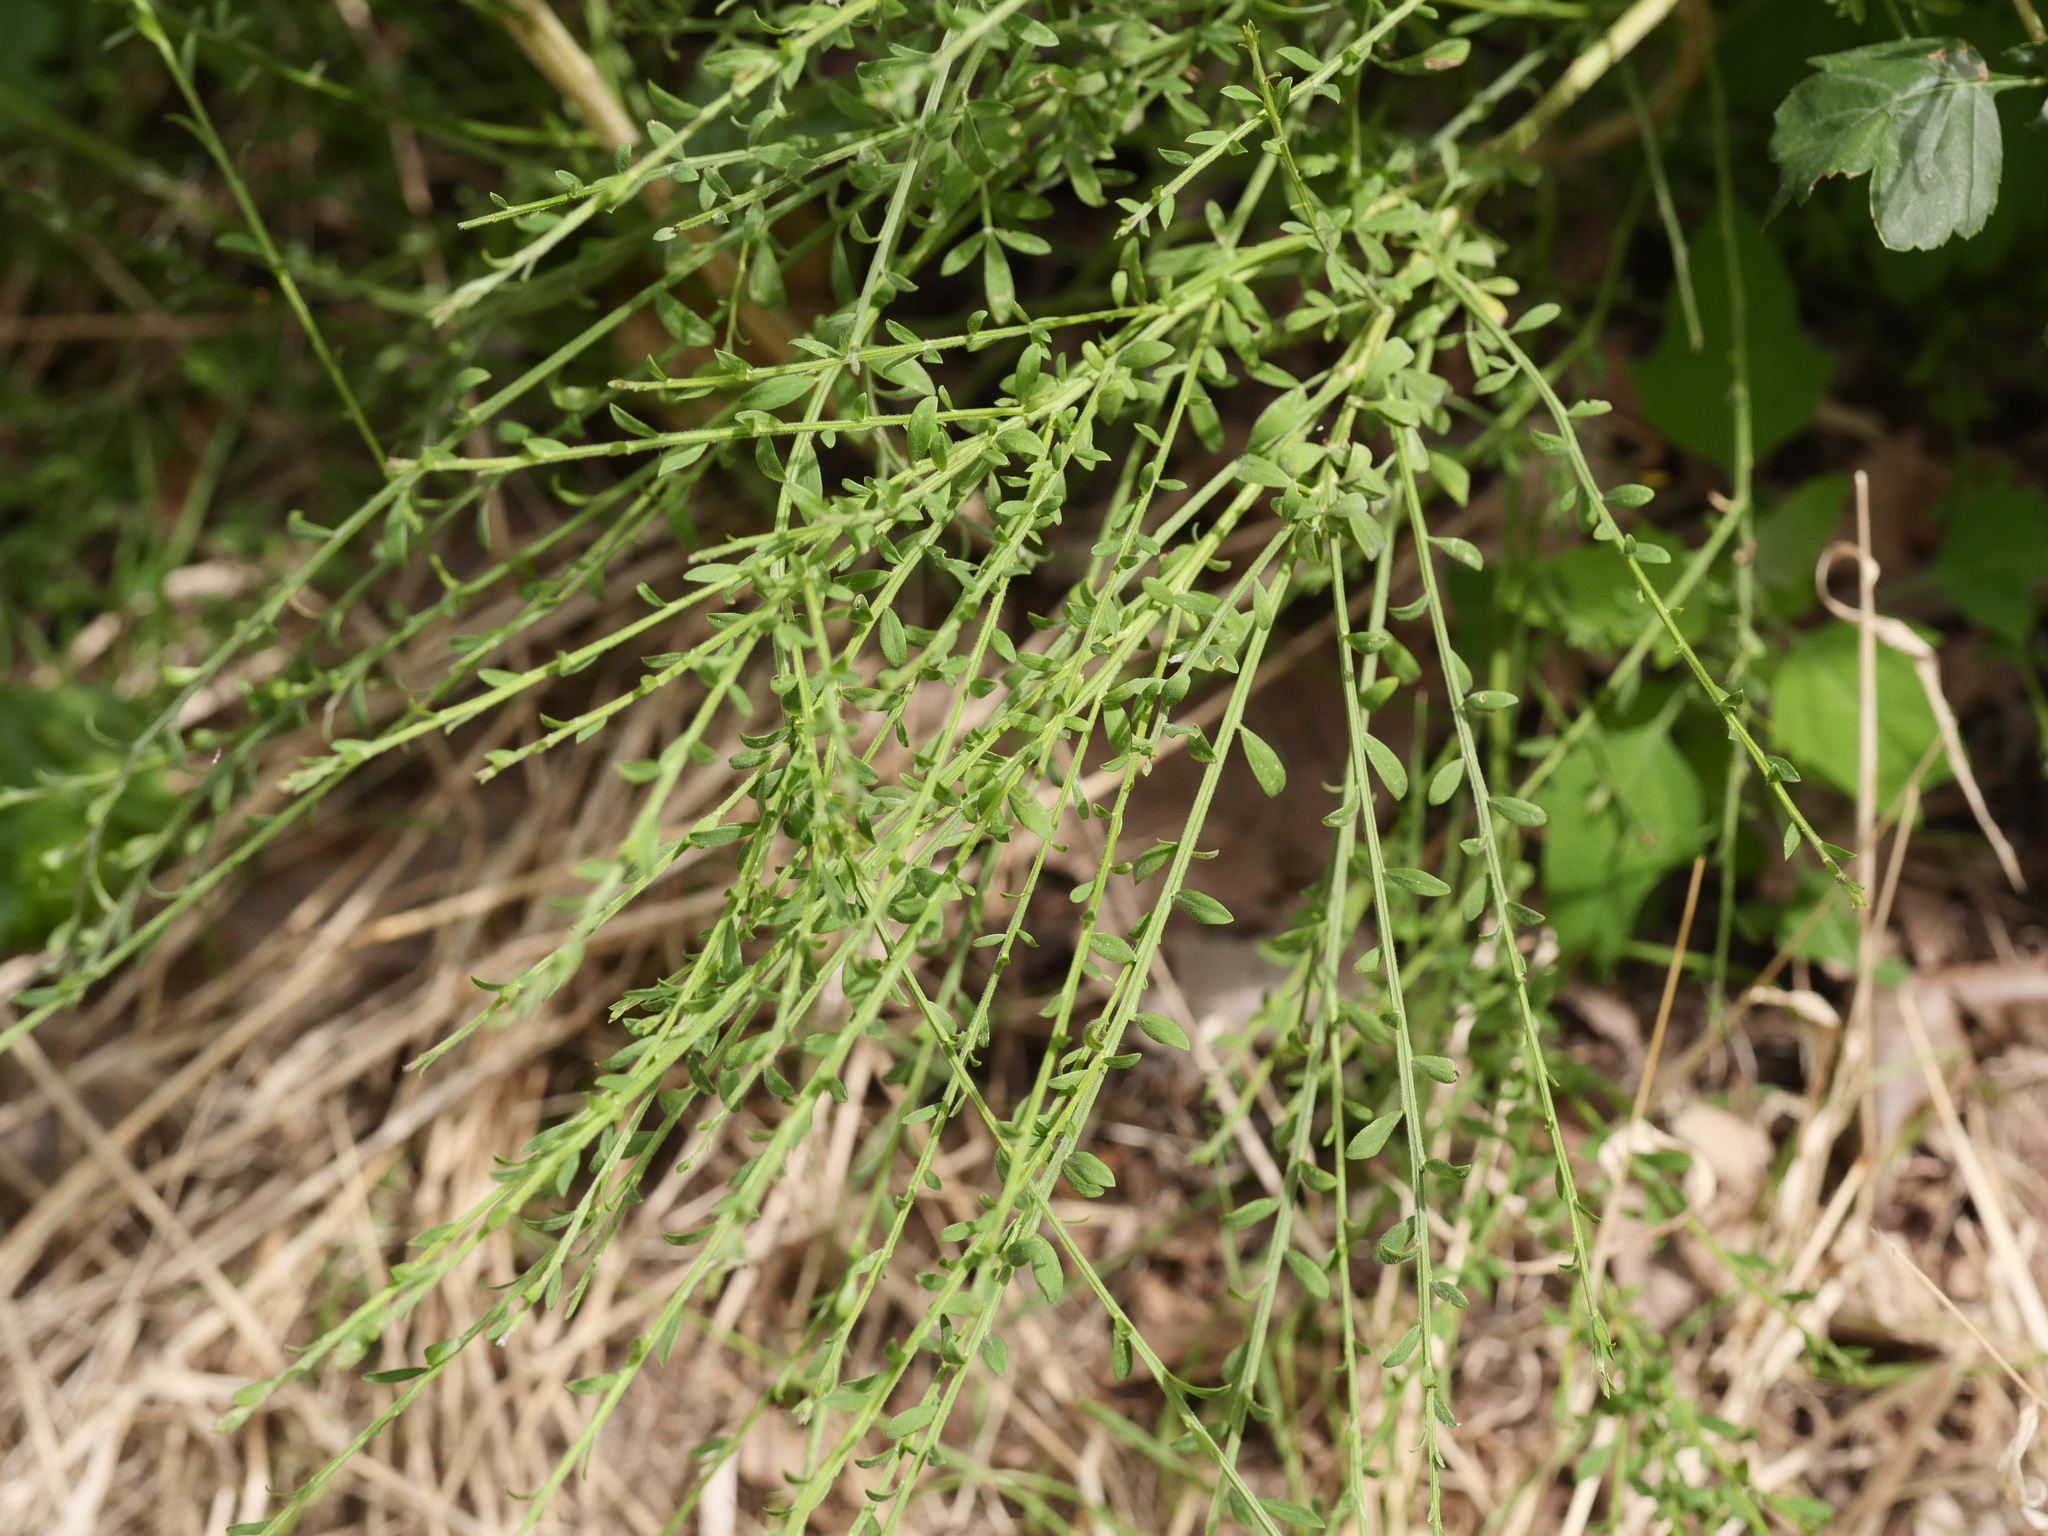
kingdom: Plantae
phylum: Tracheophyta
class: Magnoliopsida
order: Fabales
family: Fabaceae
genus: Cytisus
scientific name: Cytisus scoparius
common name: Scotch broom
